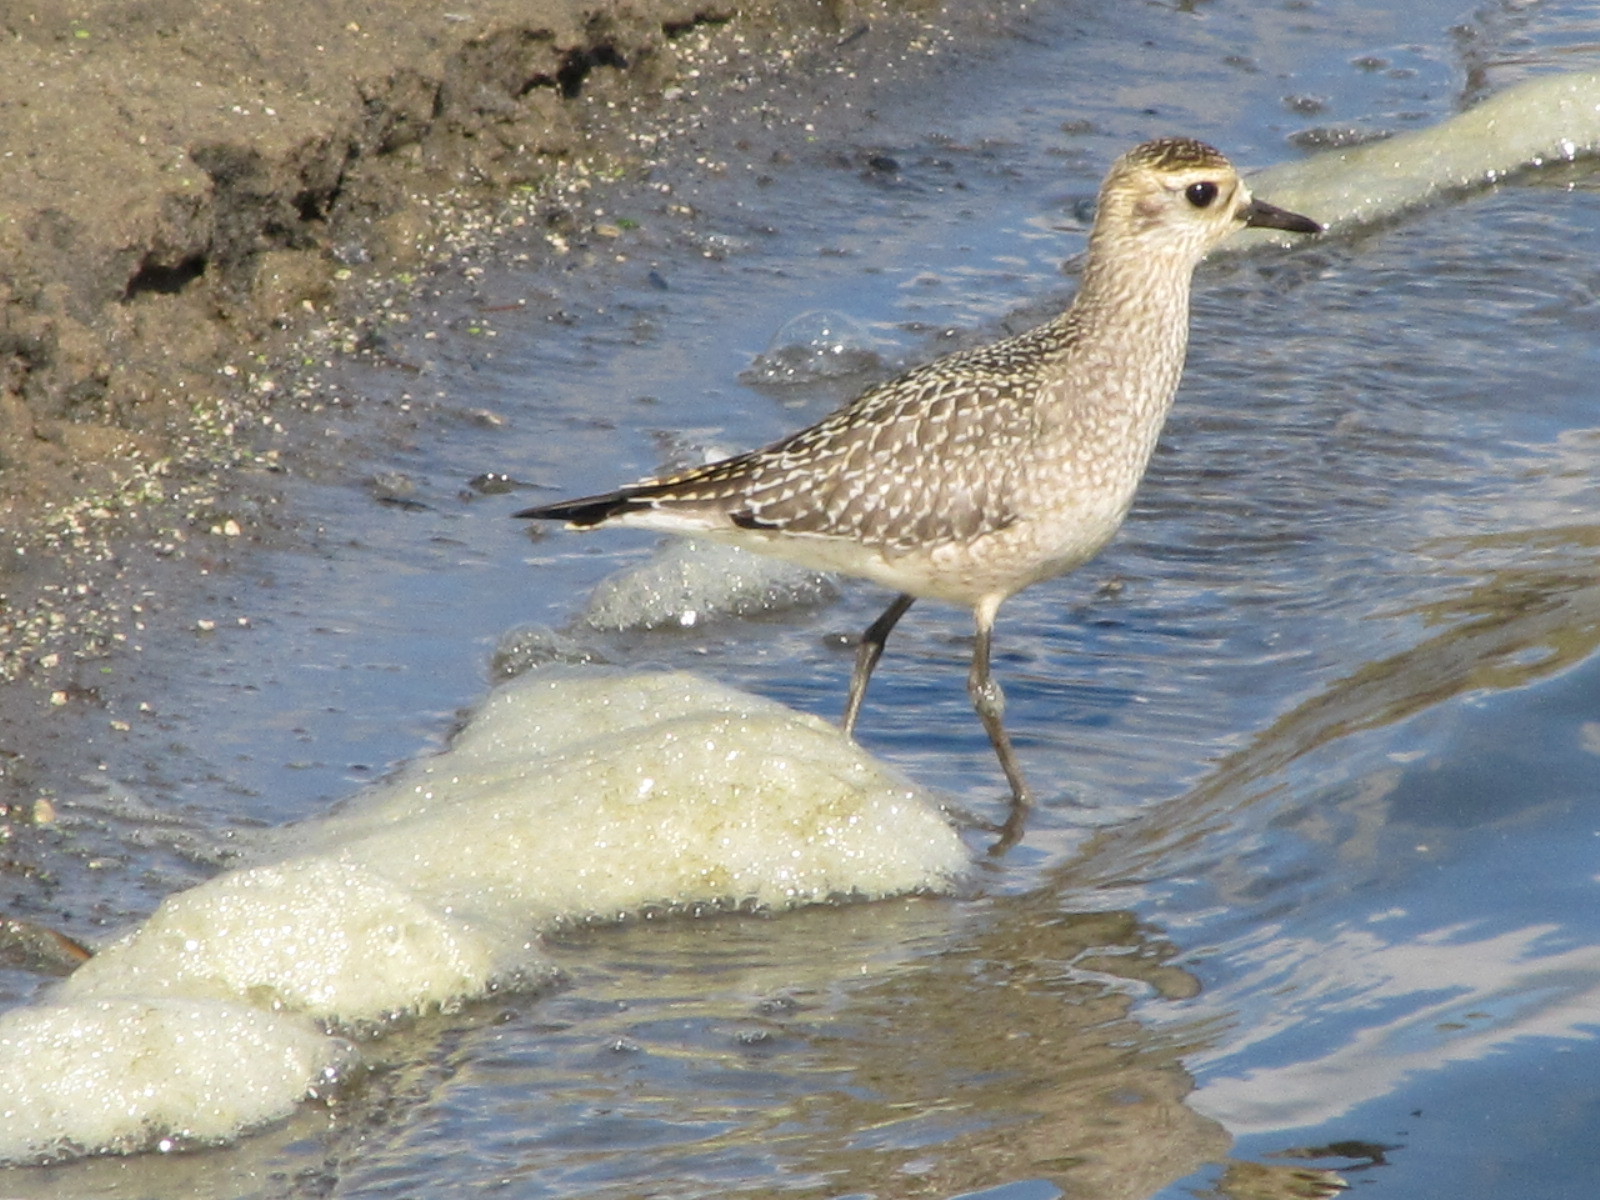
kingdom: Animalia
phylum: Chordata
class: Aves
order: Charadriiformes
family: Charadriidae
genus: Pluvialis
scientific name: Pluvialis dominica
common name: American golden plover
